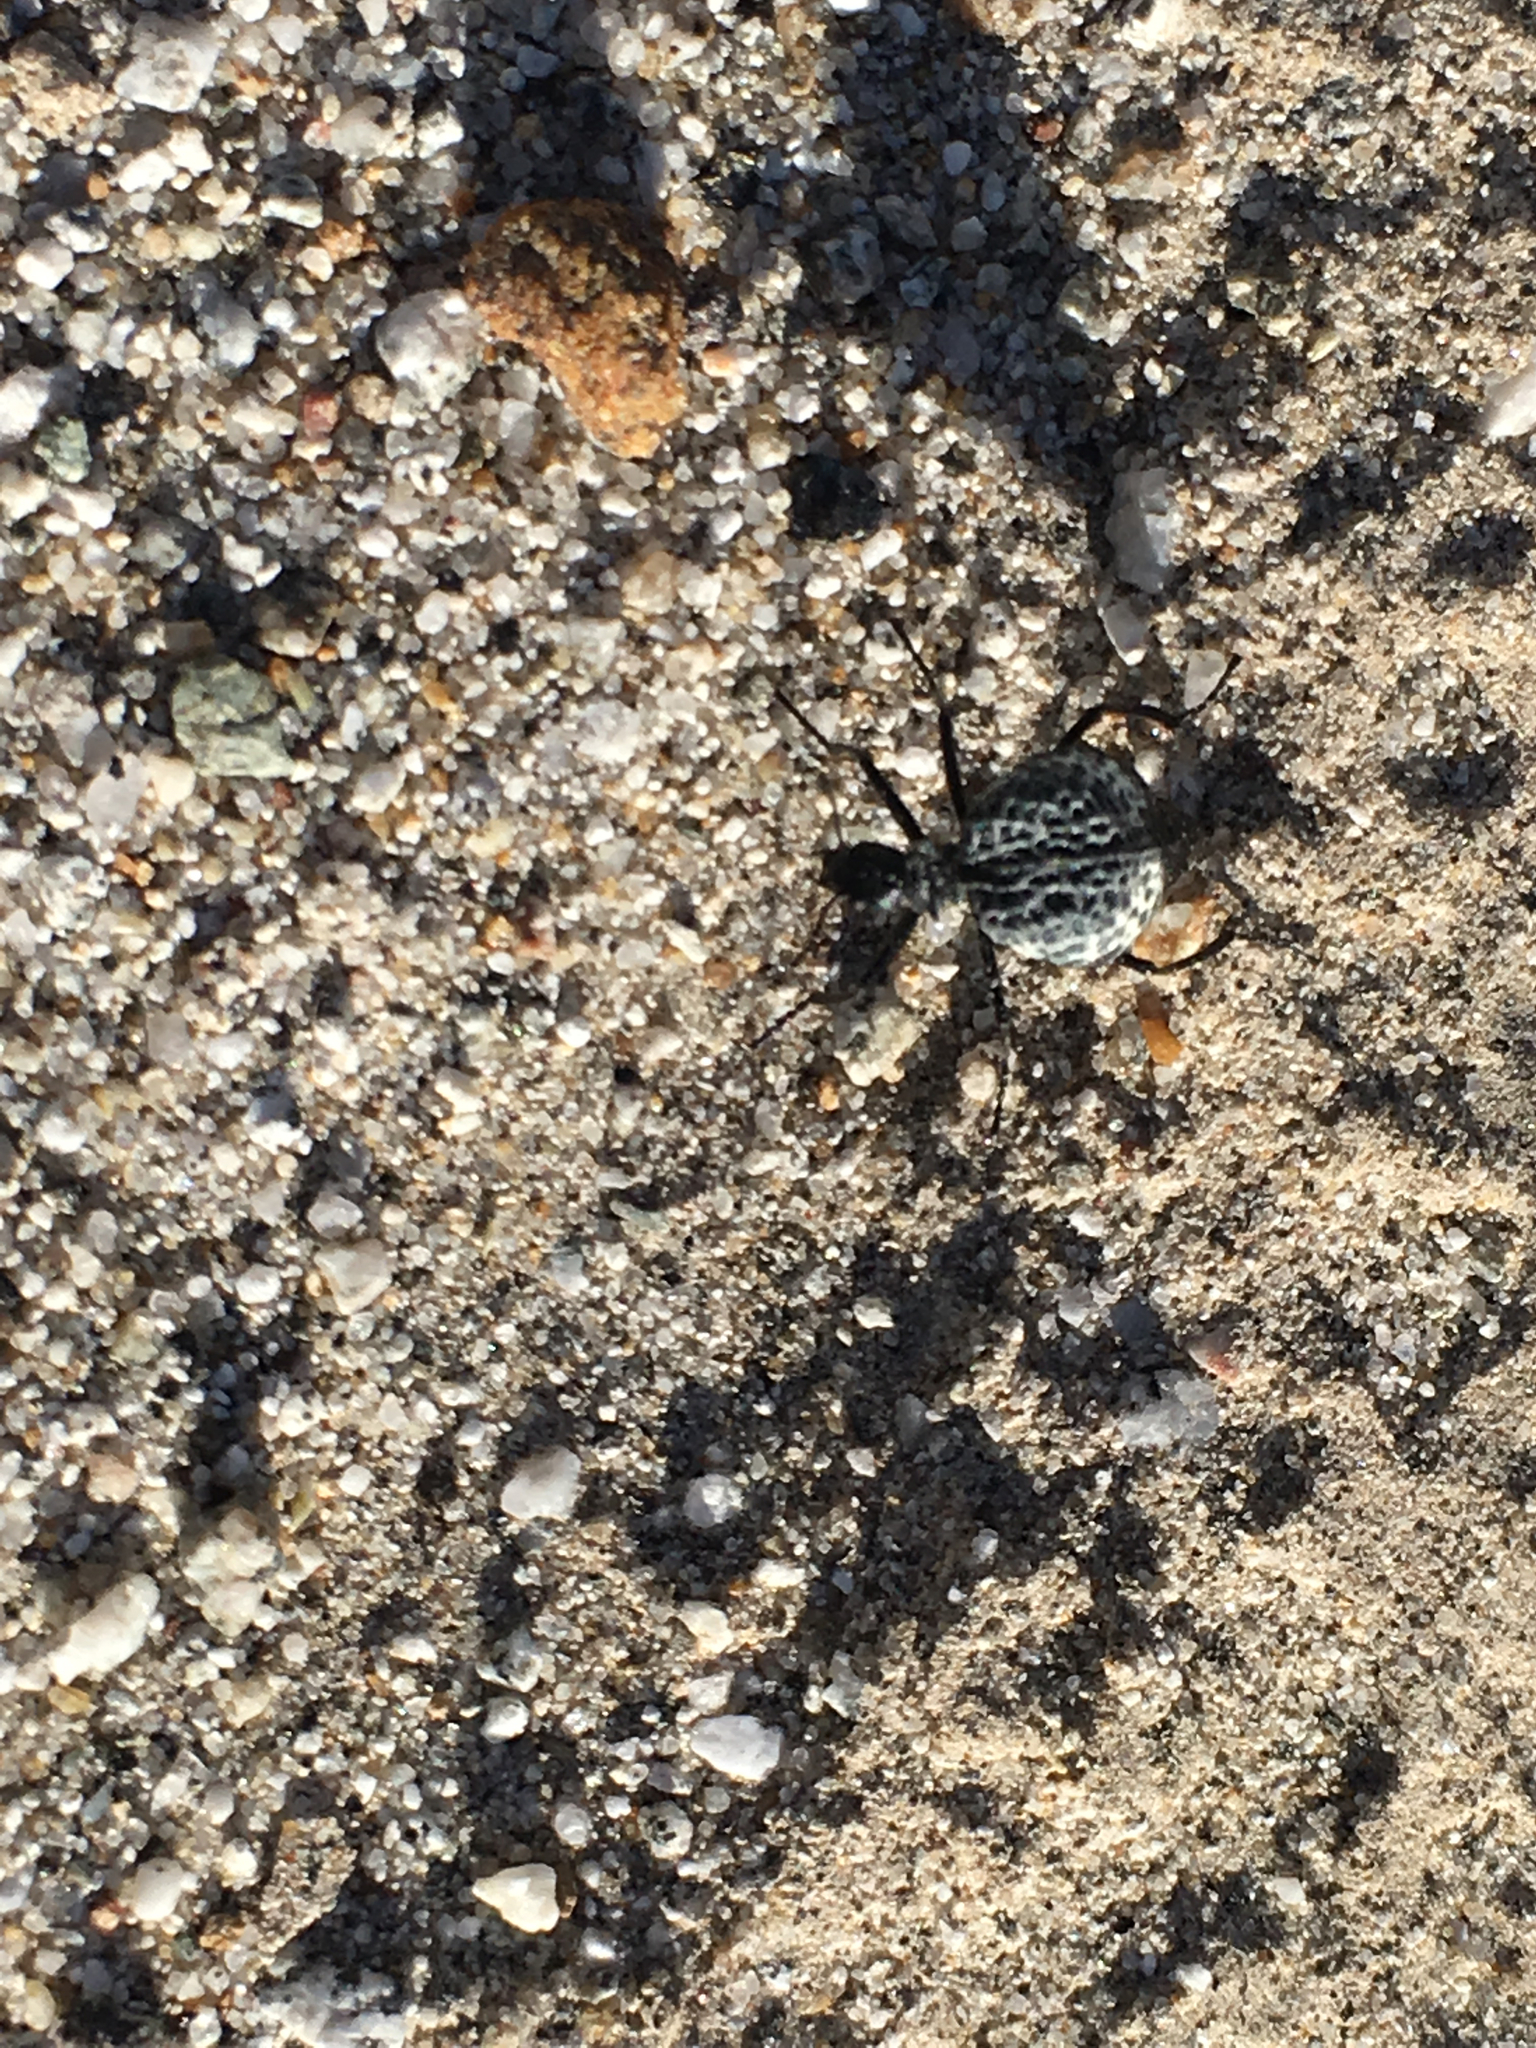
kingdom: Animalia
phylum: Arthropoda
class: Insecta
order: Coleoptera
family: Meloidae
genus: Cysteodemus
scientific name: Cysteodemus armatus
